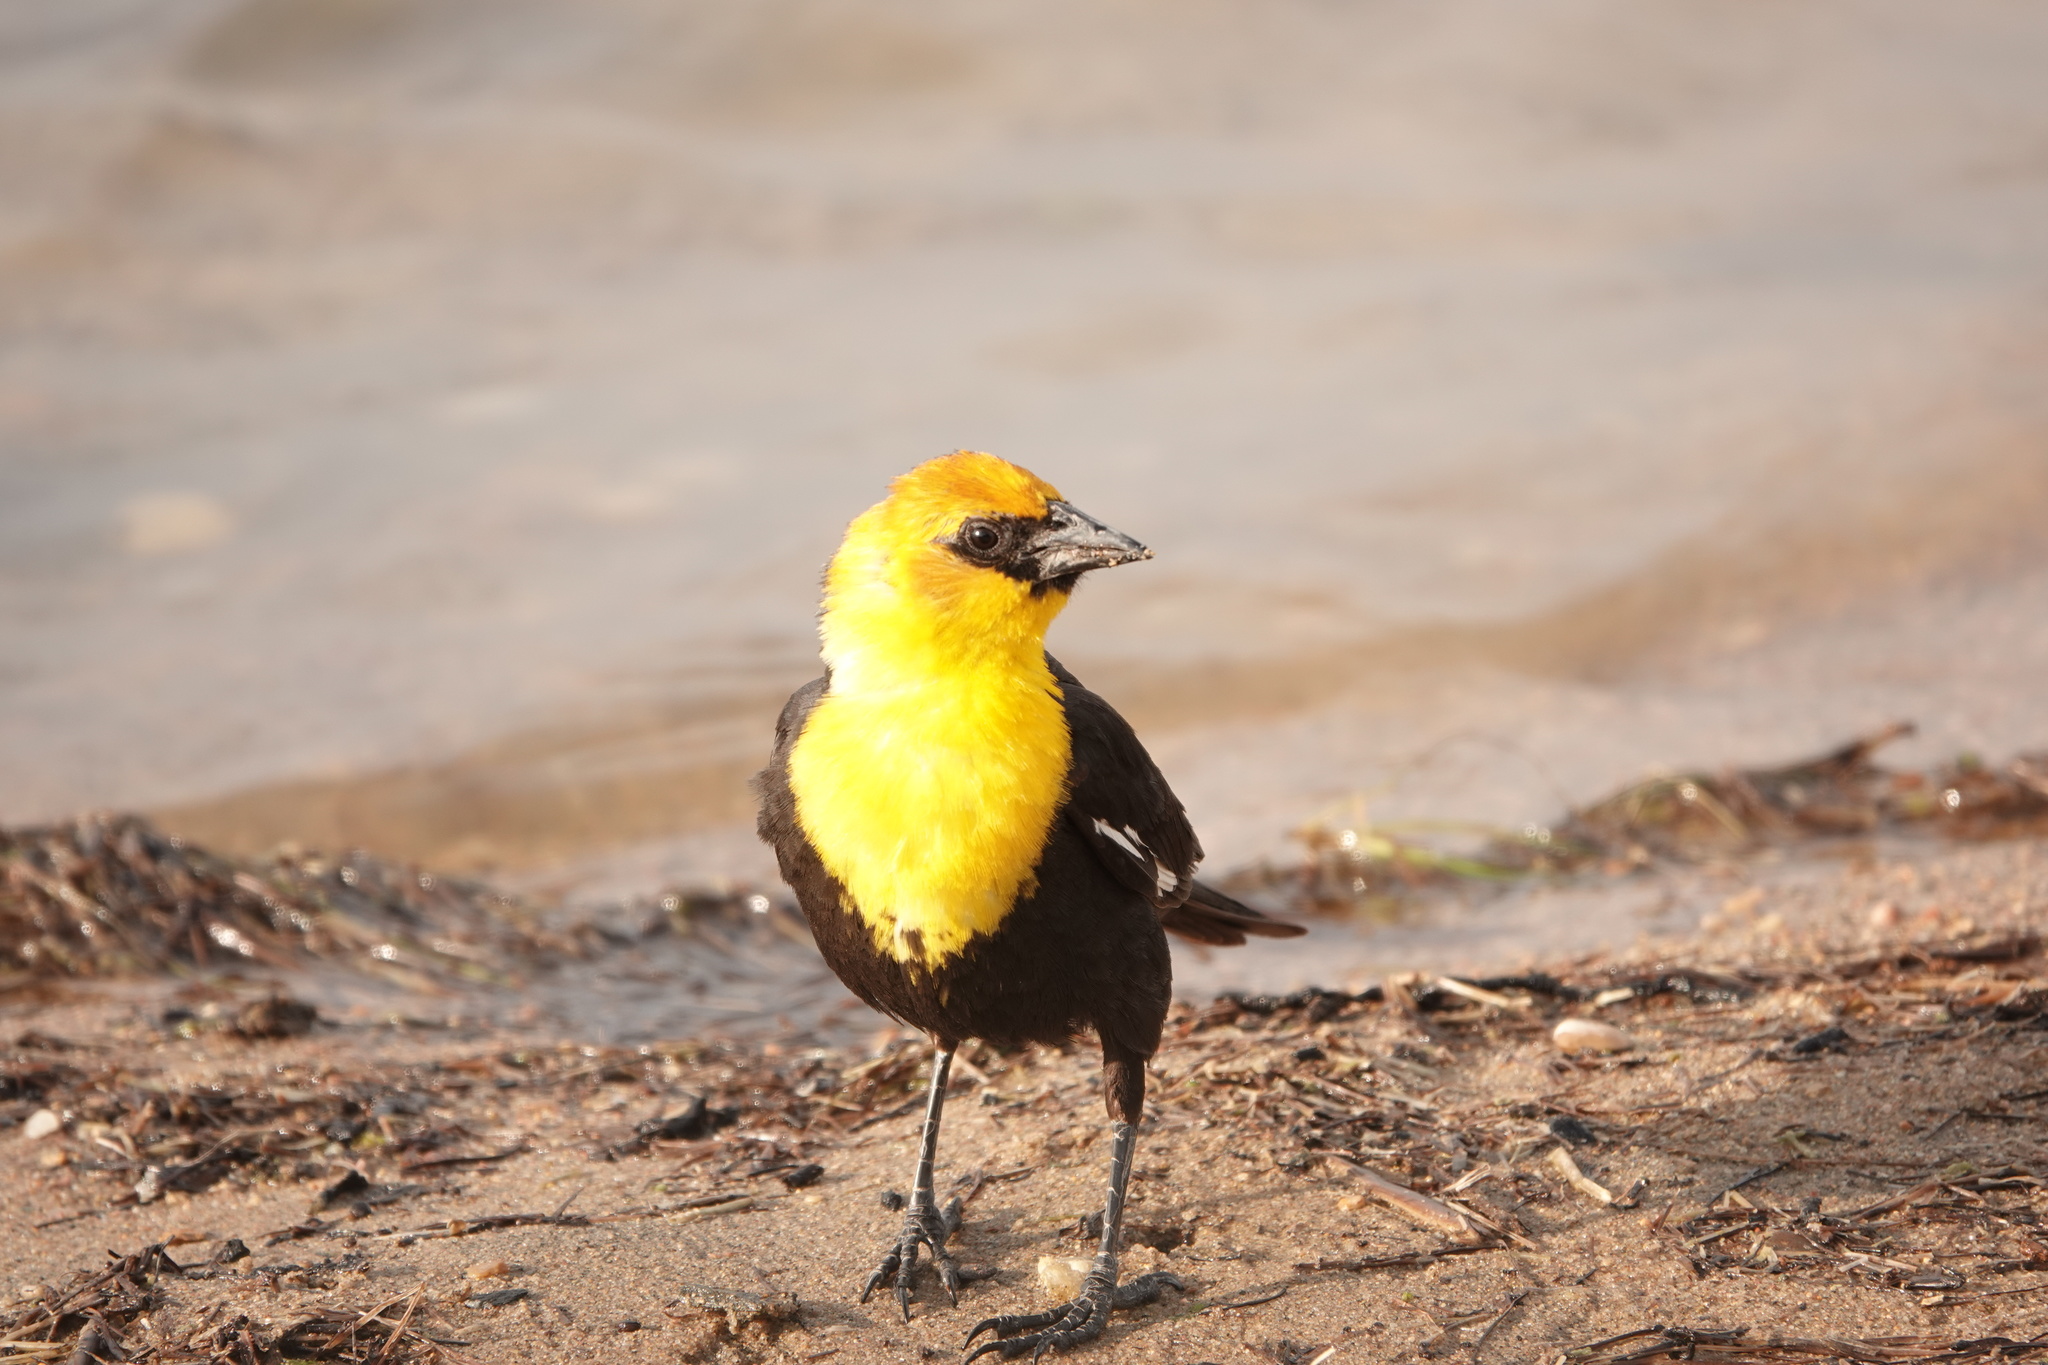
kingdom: Animalia
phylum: Chordata
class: Aves
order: Passeriformes
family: Icteridae
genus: Xanthocephalus
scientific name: Xanthocephalus xanthocephalus
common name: Yellow-headed blackbird
